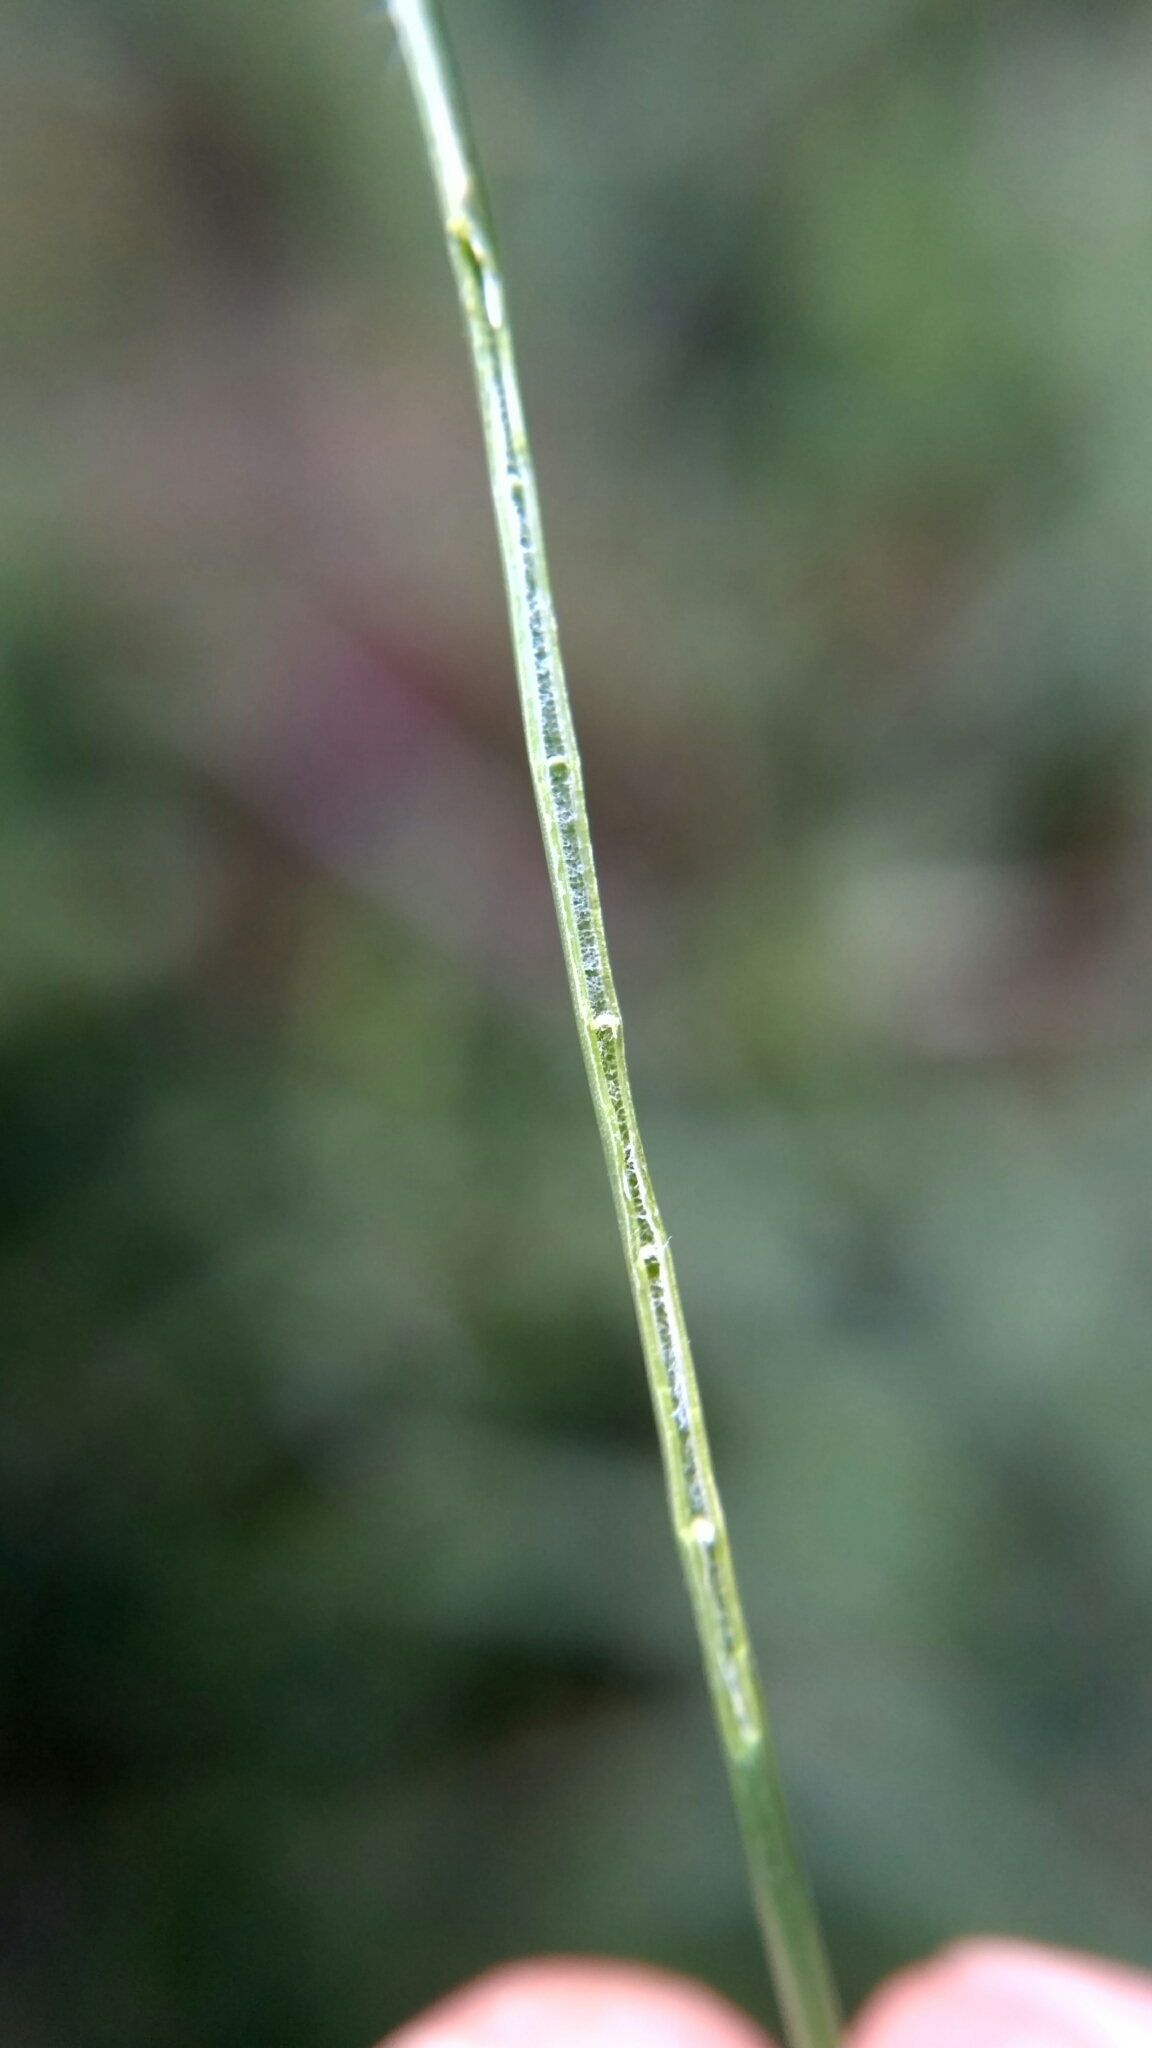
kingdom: Plantae
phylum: Tracheophyta
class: Liliopsida
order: Poales
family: Juncaceae
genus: Juncus
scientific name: Juncus articulatus
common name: Jointed rush
